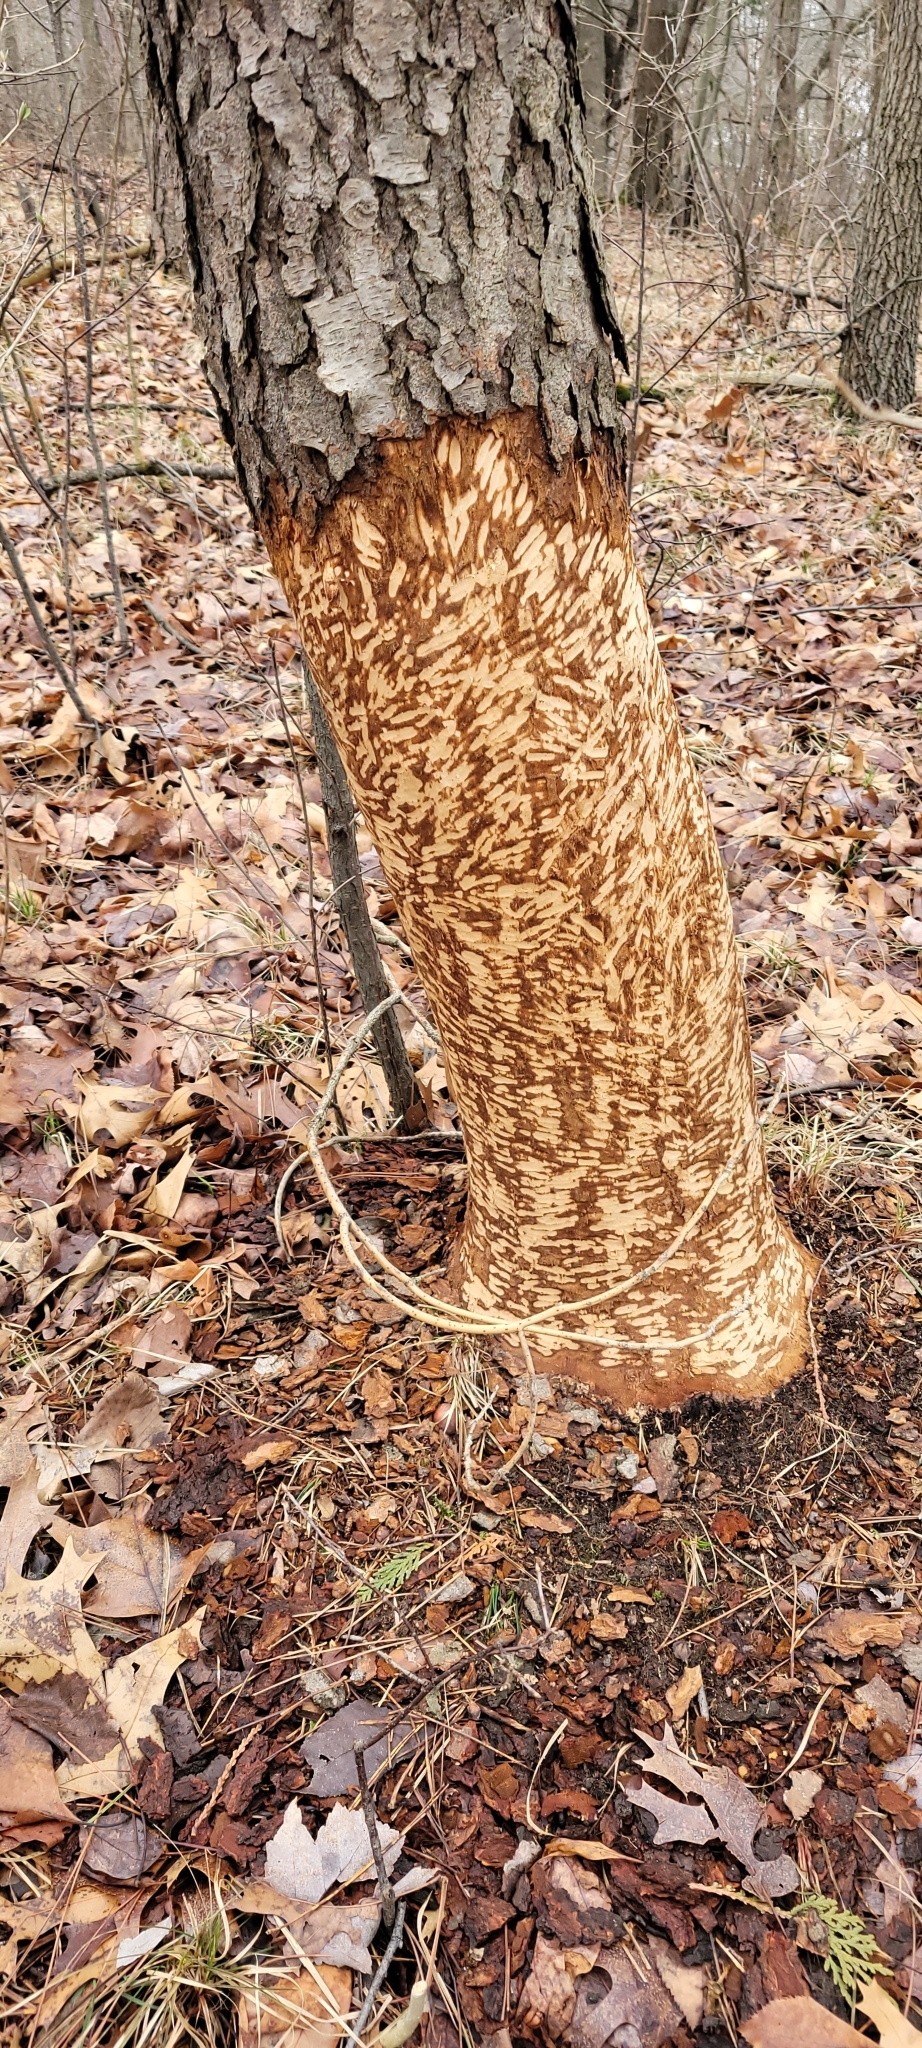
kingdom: Animalia
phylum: Chordata
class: Mammalia
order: Rodentia
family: Castoridae
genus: Castor
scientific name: Castor canadensis
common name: American beaver
